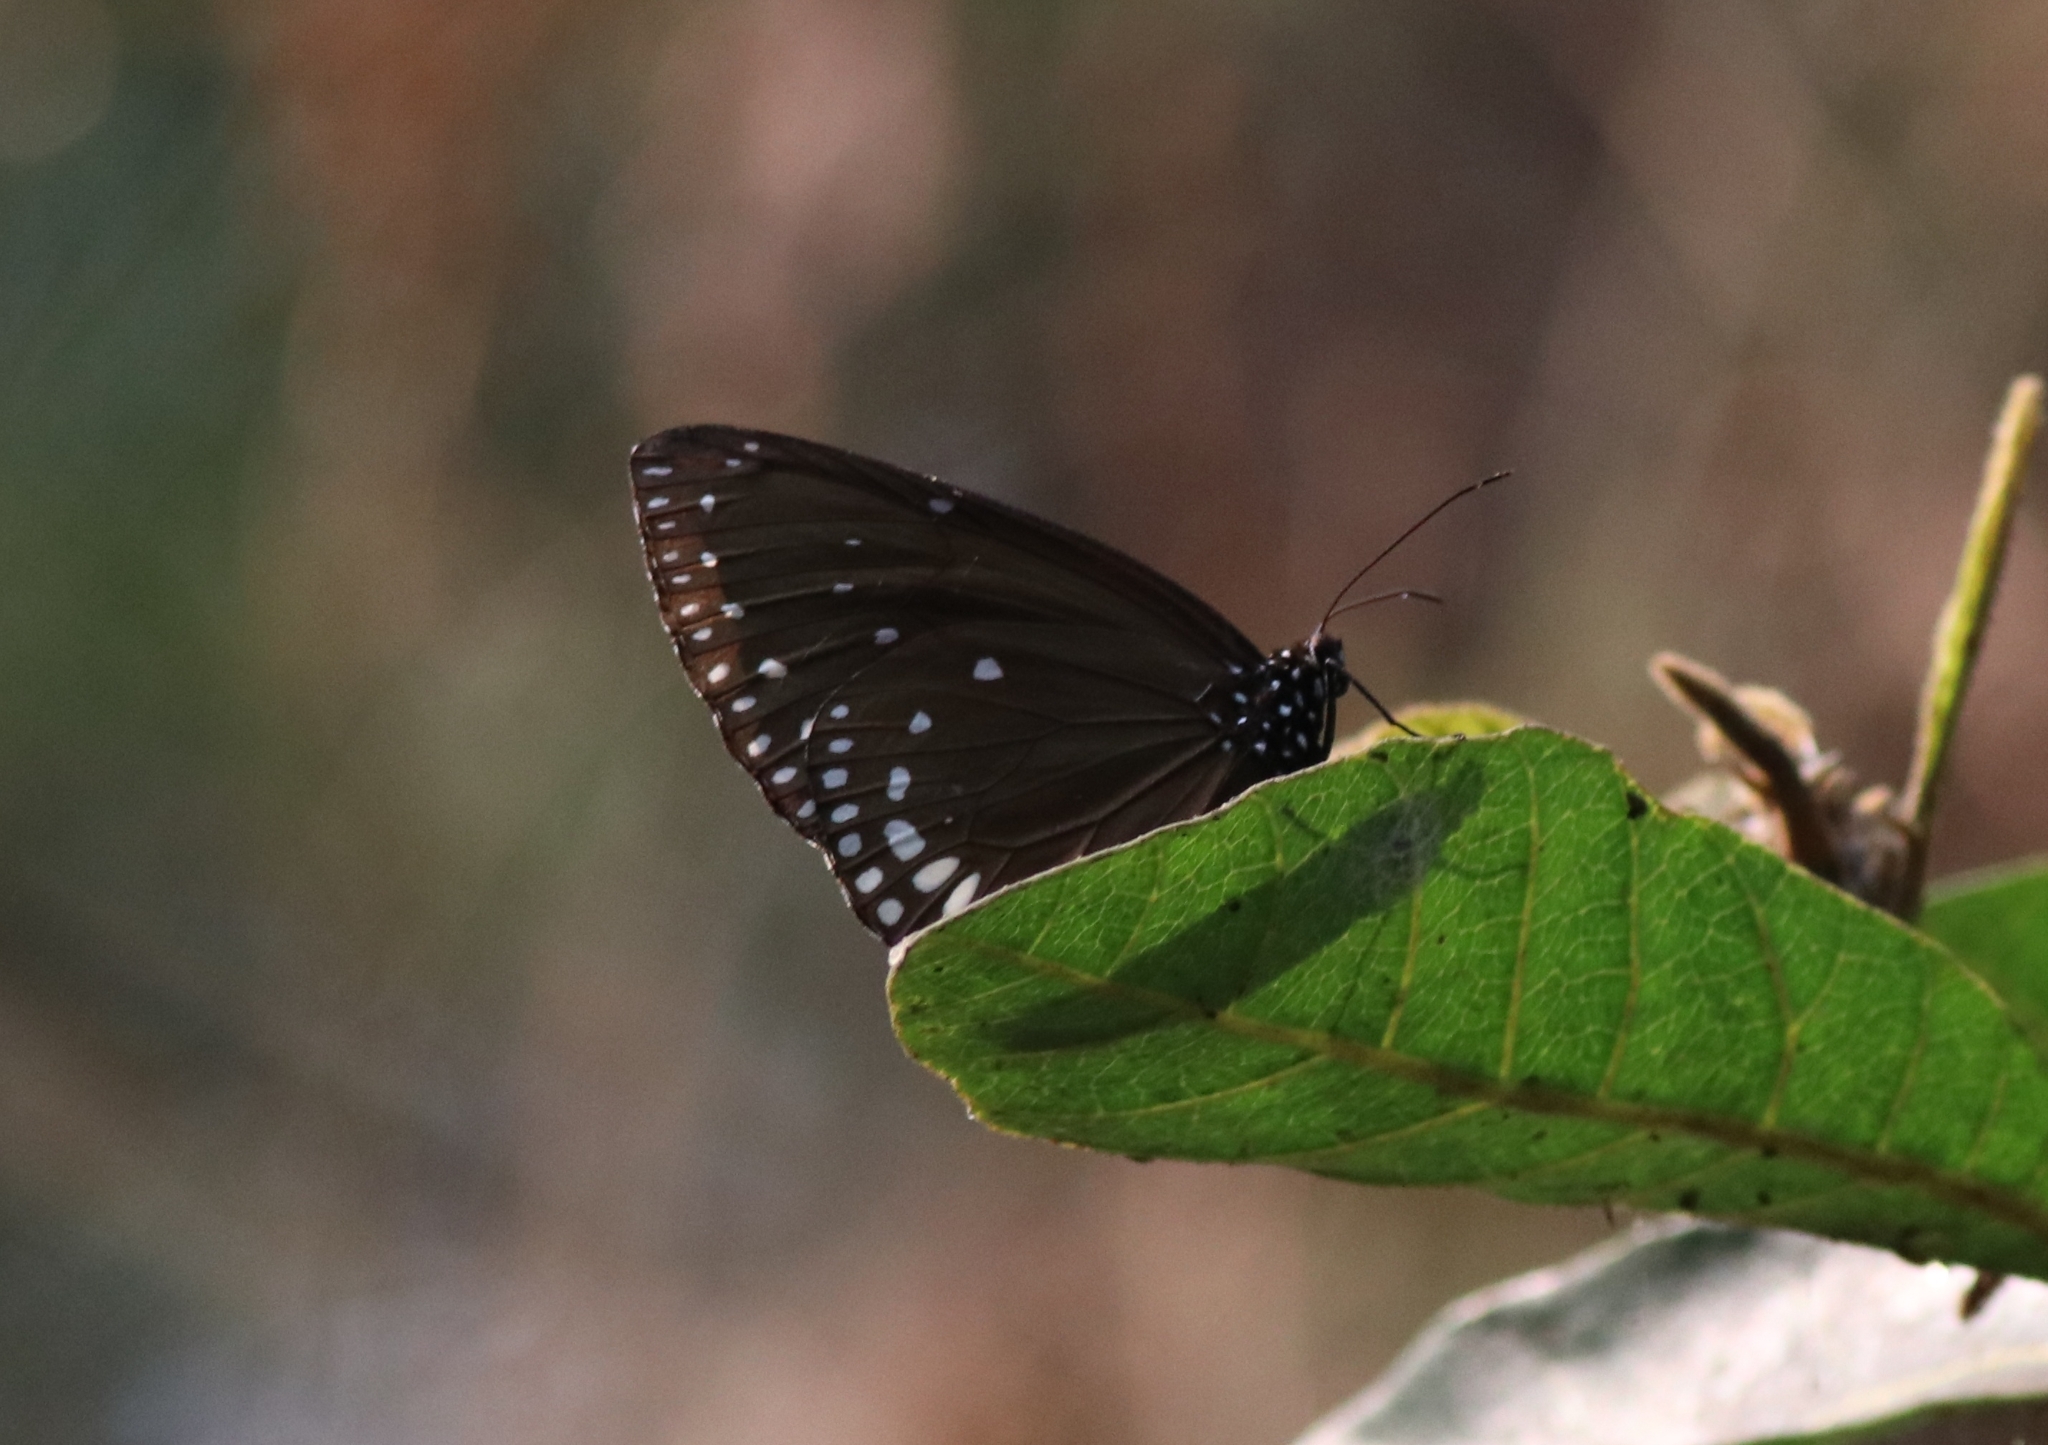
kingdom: Animalia
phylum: Arthropoda
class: Insecta
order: Lepidoptera
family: Nymphalidae
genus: Euploea
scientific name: Euploea klugii
